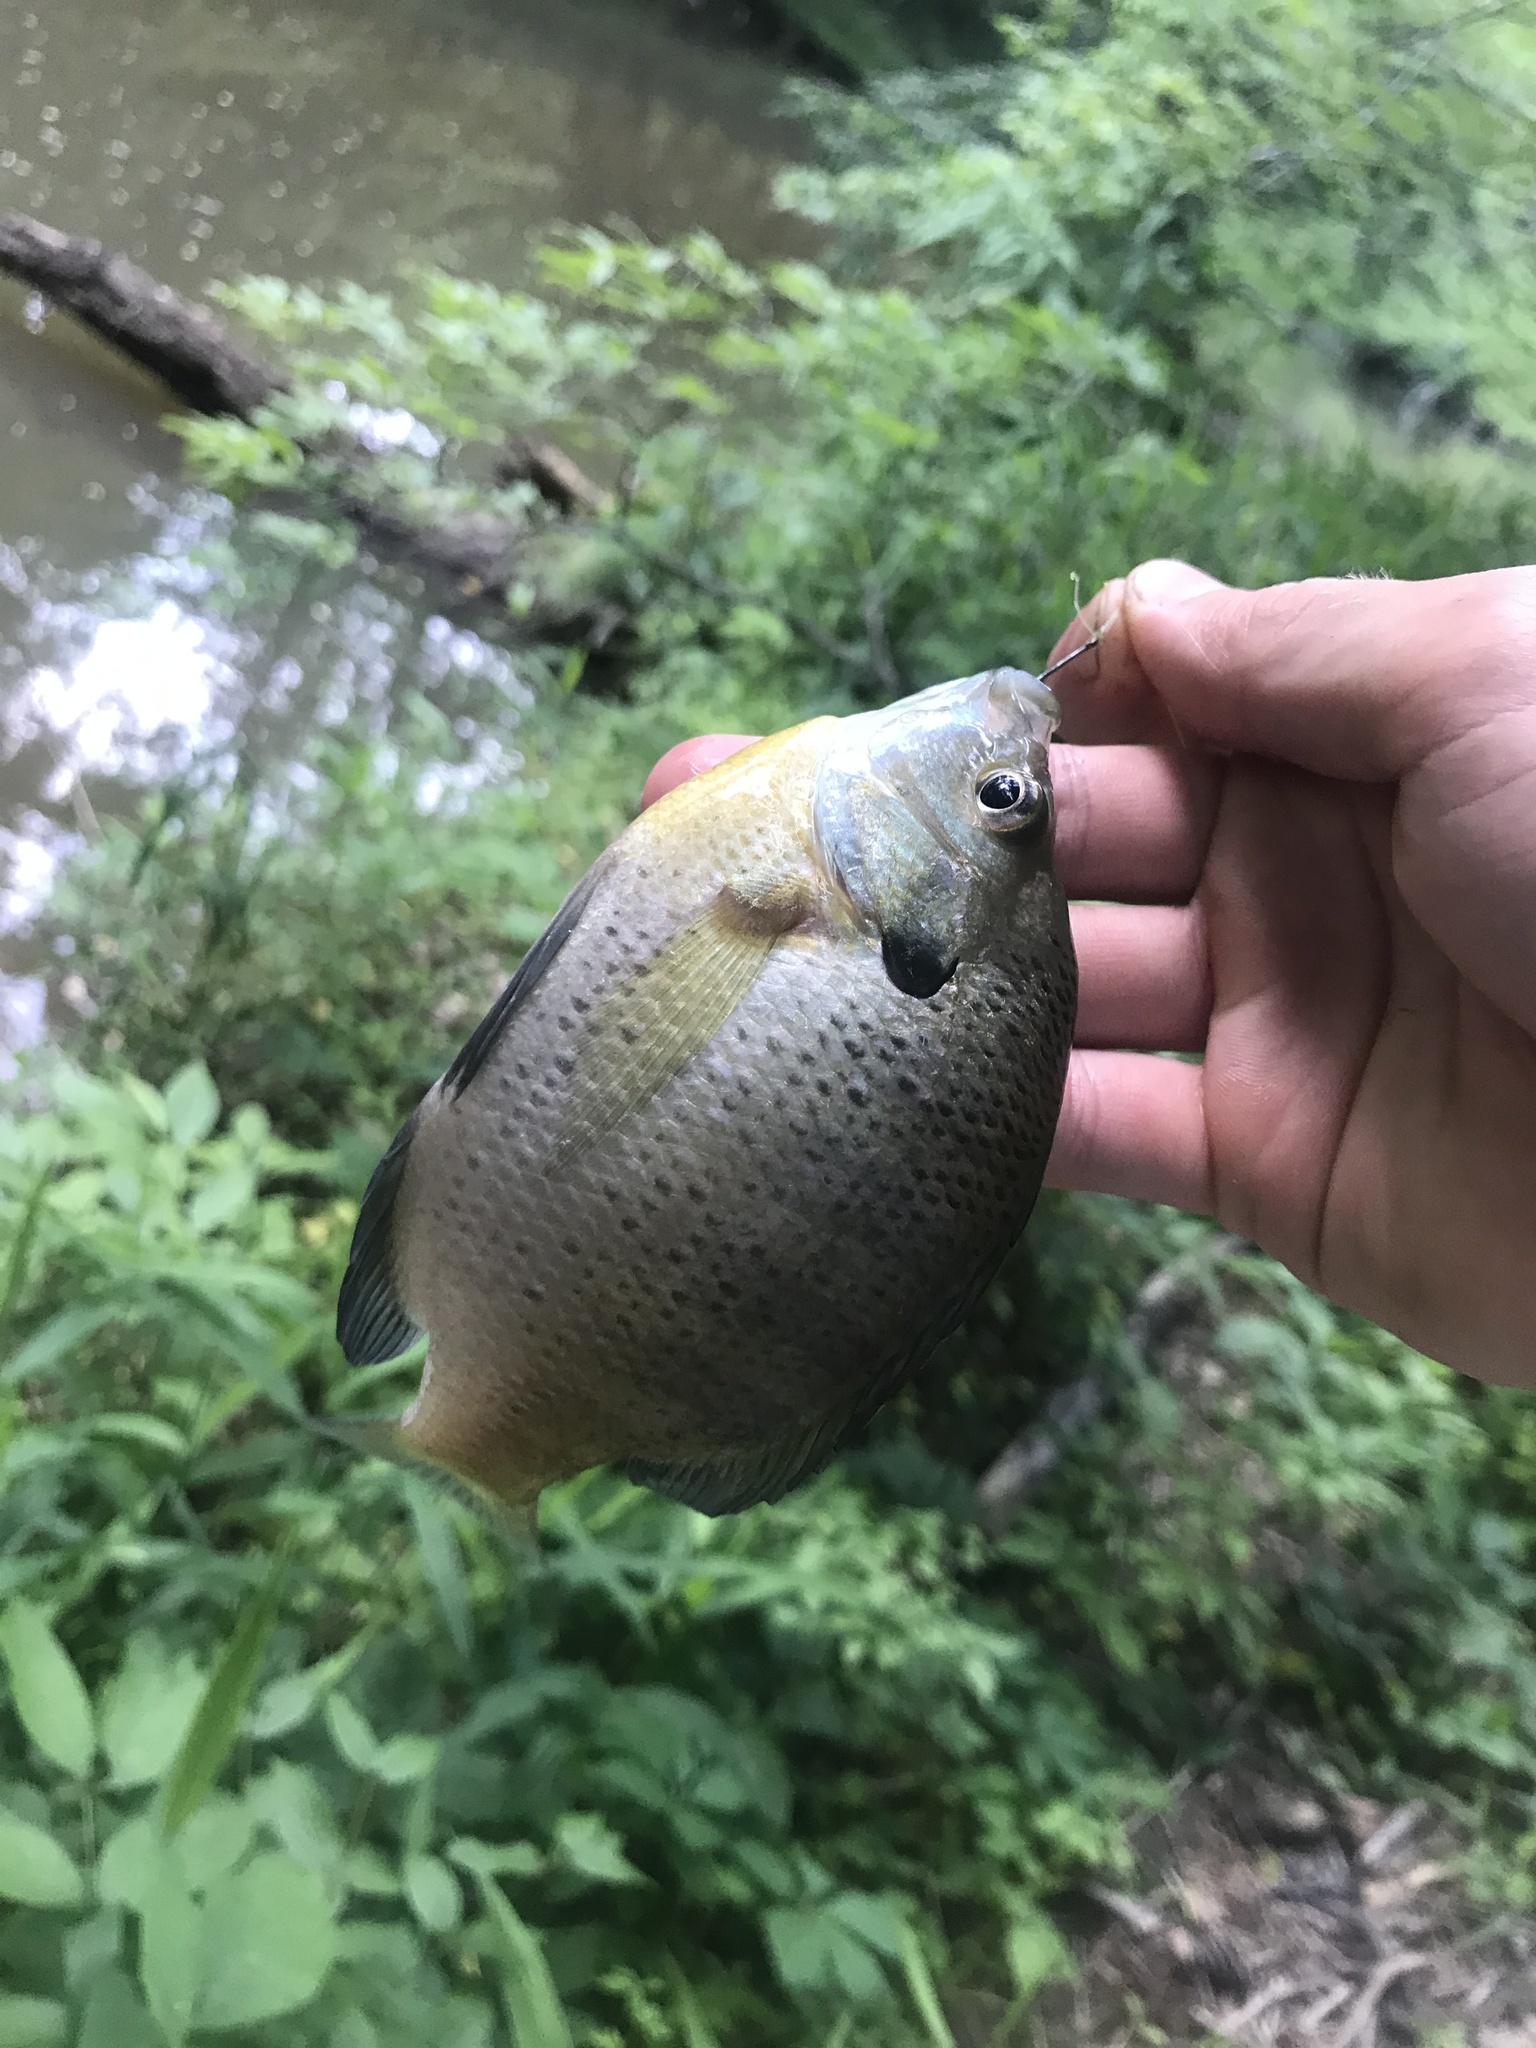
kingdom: Animalia
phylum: Chordata
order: Perciformes
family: Centrarchidae
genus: Lepomis
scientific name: Lepomis macrochirus
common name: Bluegill
